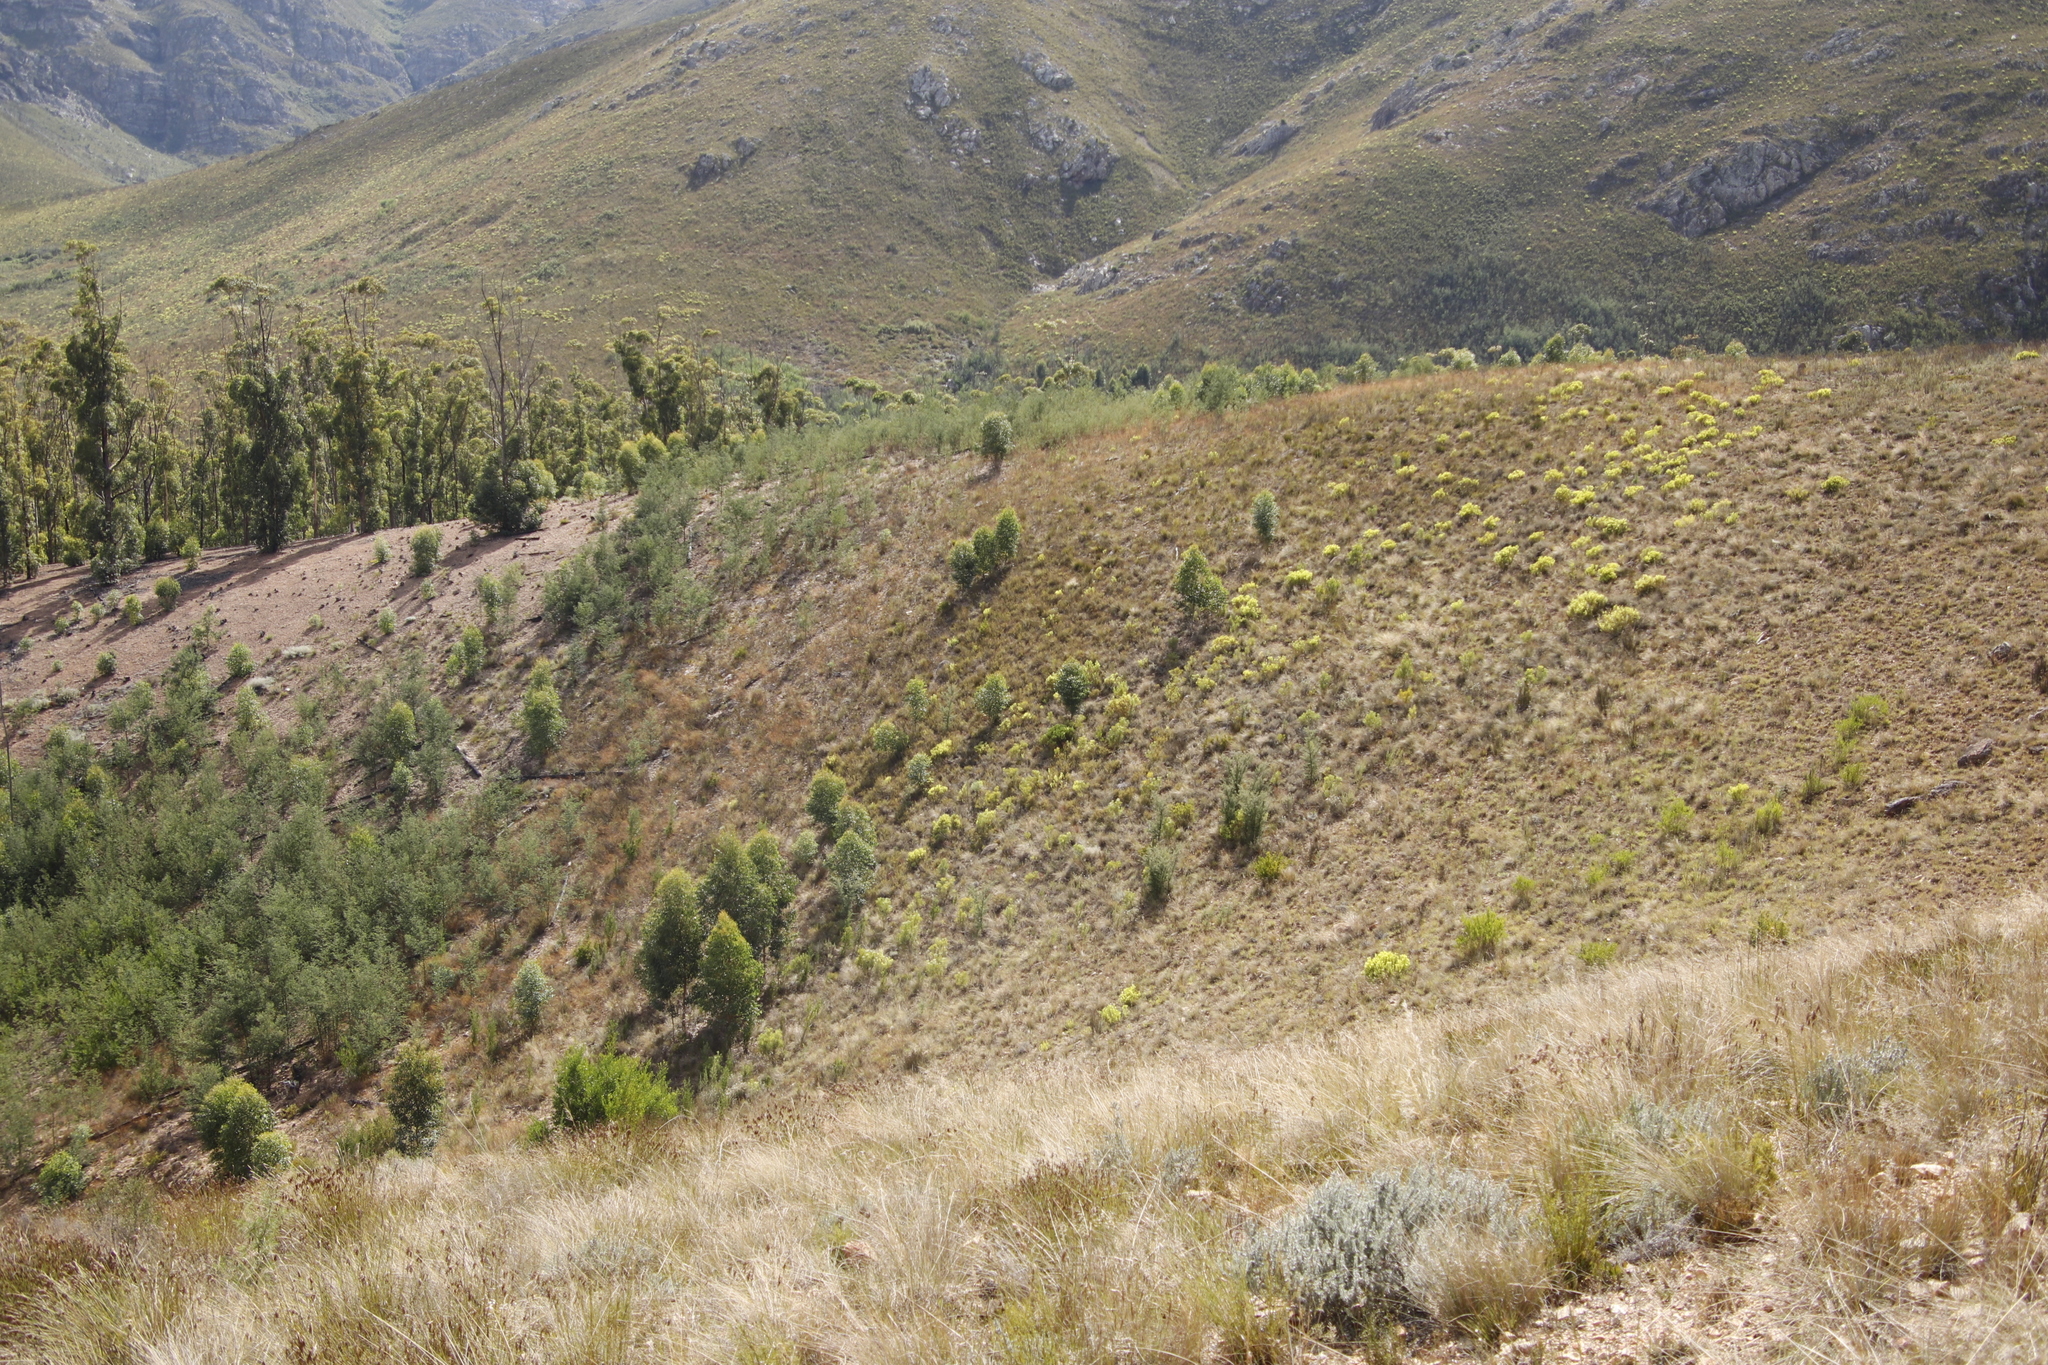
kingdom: Plantae
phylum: Tracheophyta
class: Magnoliopsida
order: Proteales
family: Proteaceae
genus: Hakea
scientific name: Hakea sericea
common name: Needle bush
